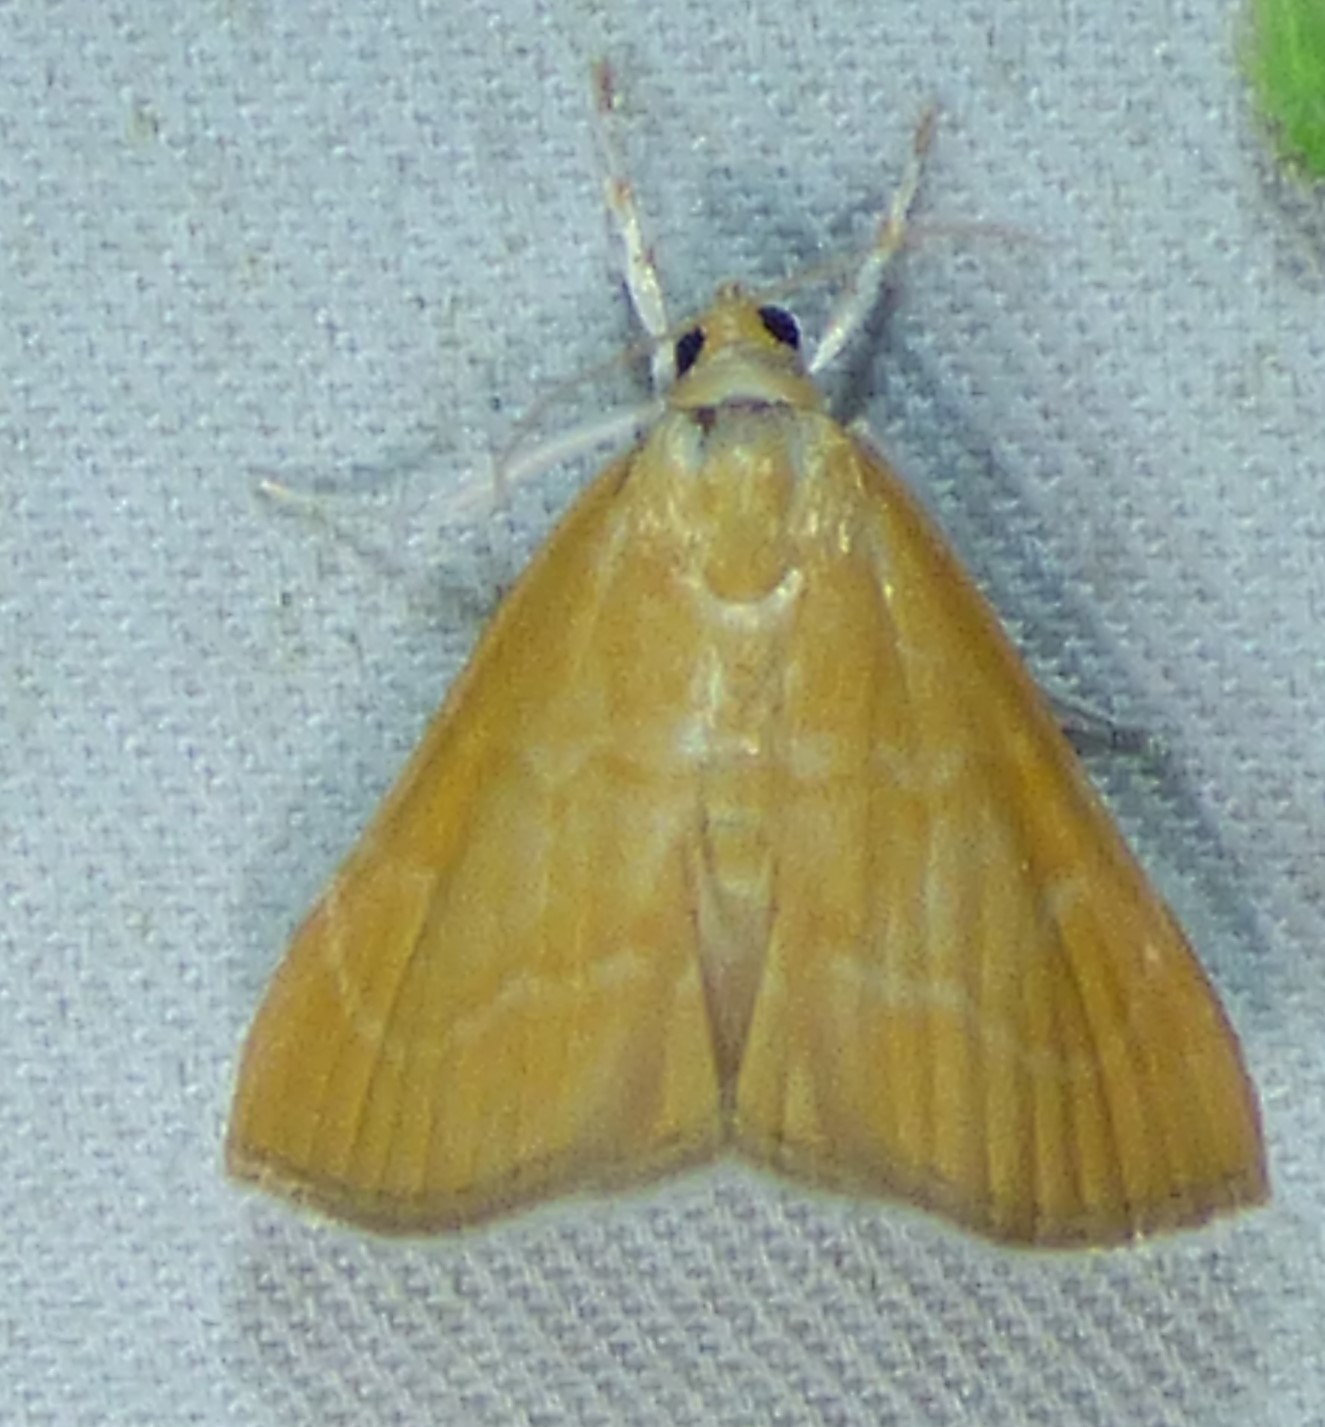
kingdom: Animalia
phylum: Arthropoda
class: Insecta
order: Lepidoptera
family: Crambidae
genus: Glaphyria
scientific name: Glaphyria invisalis
